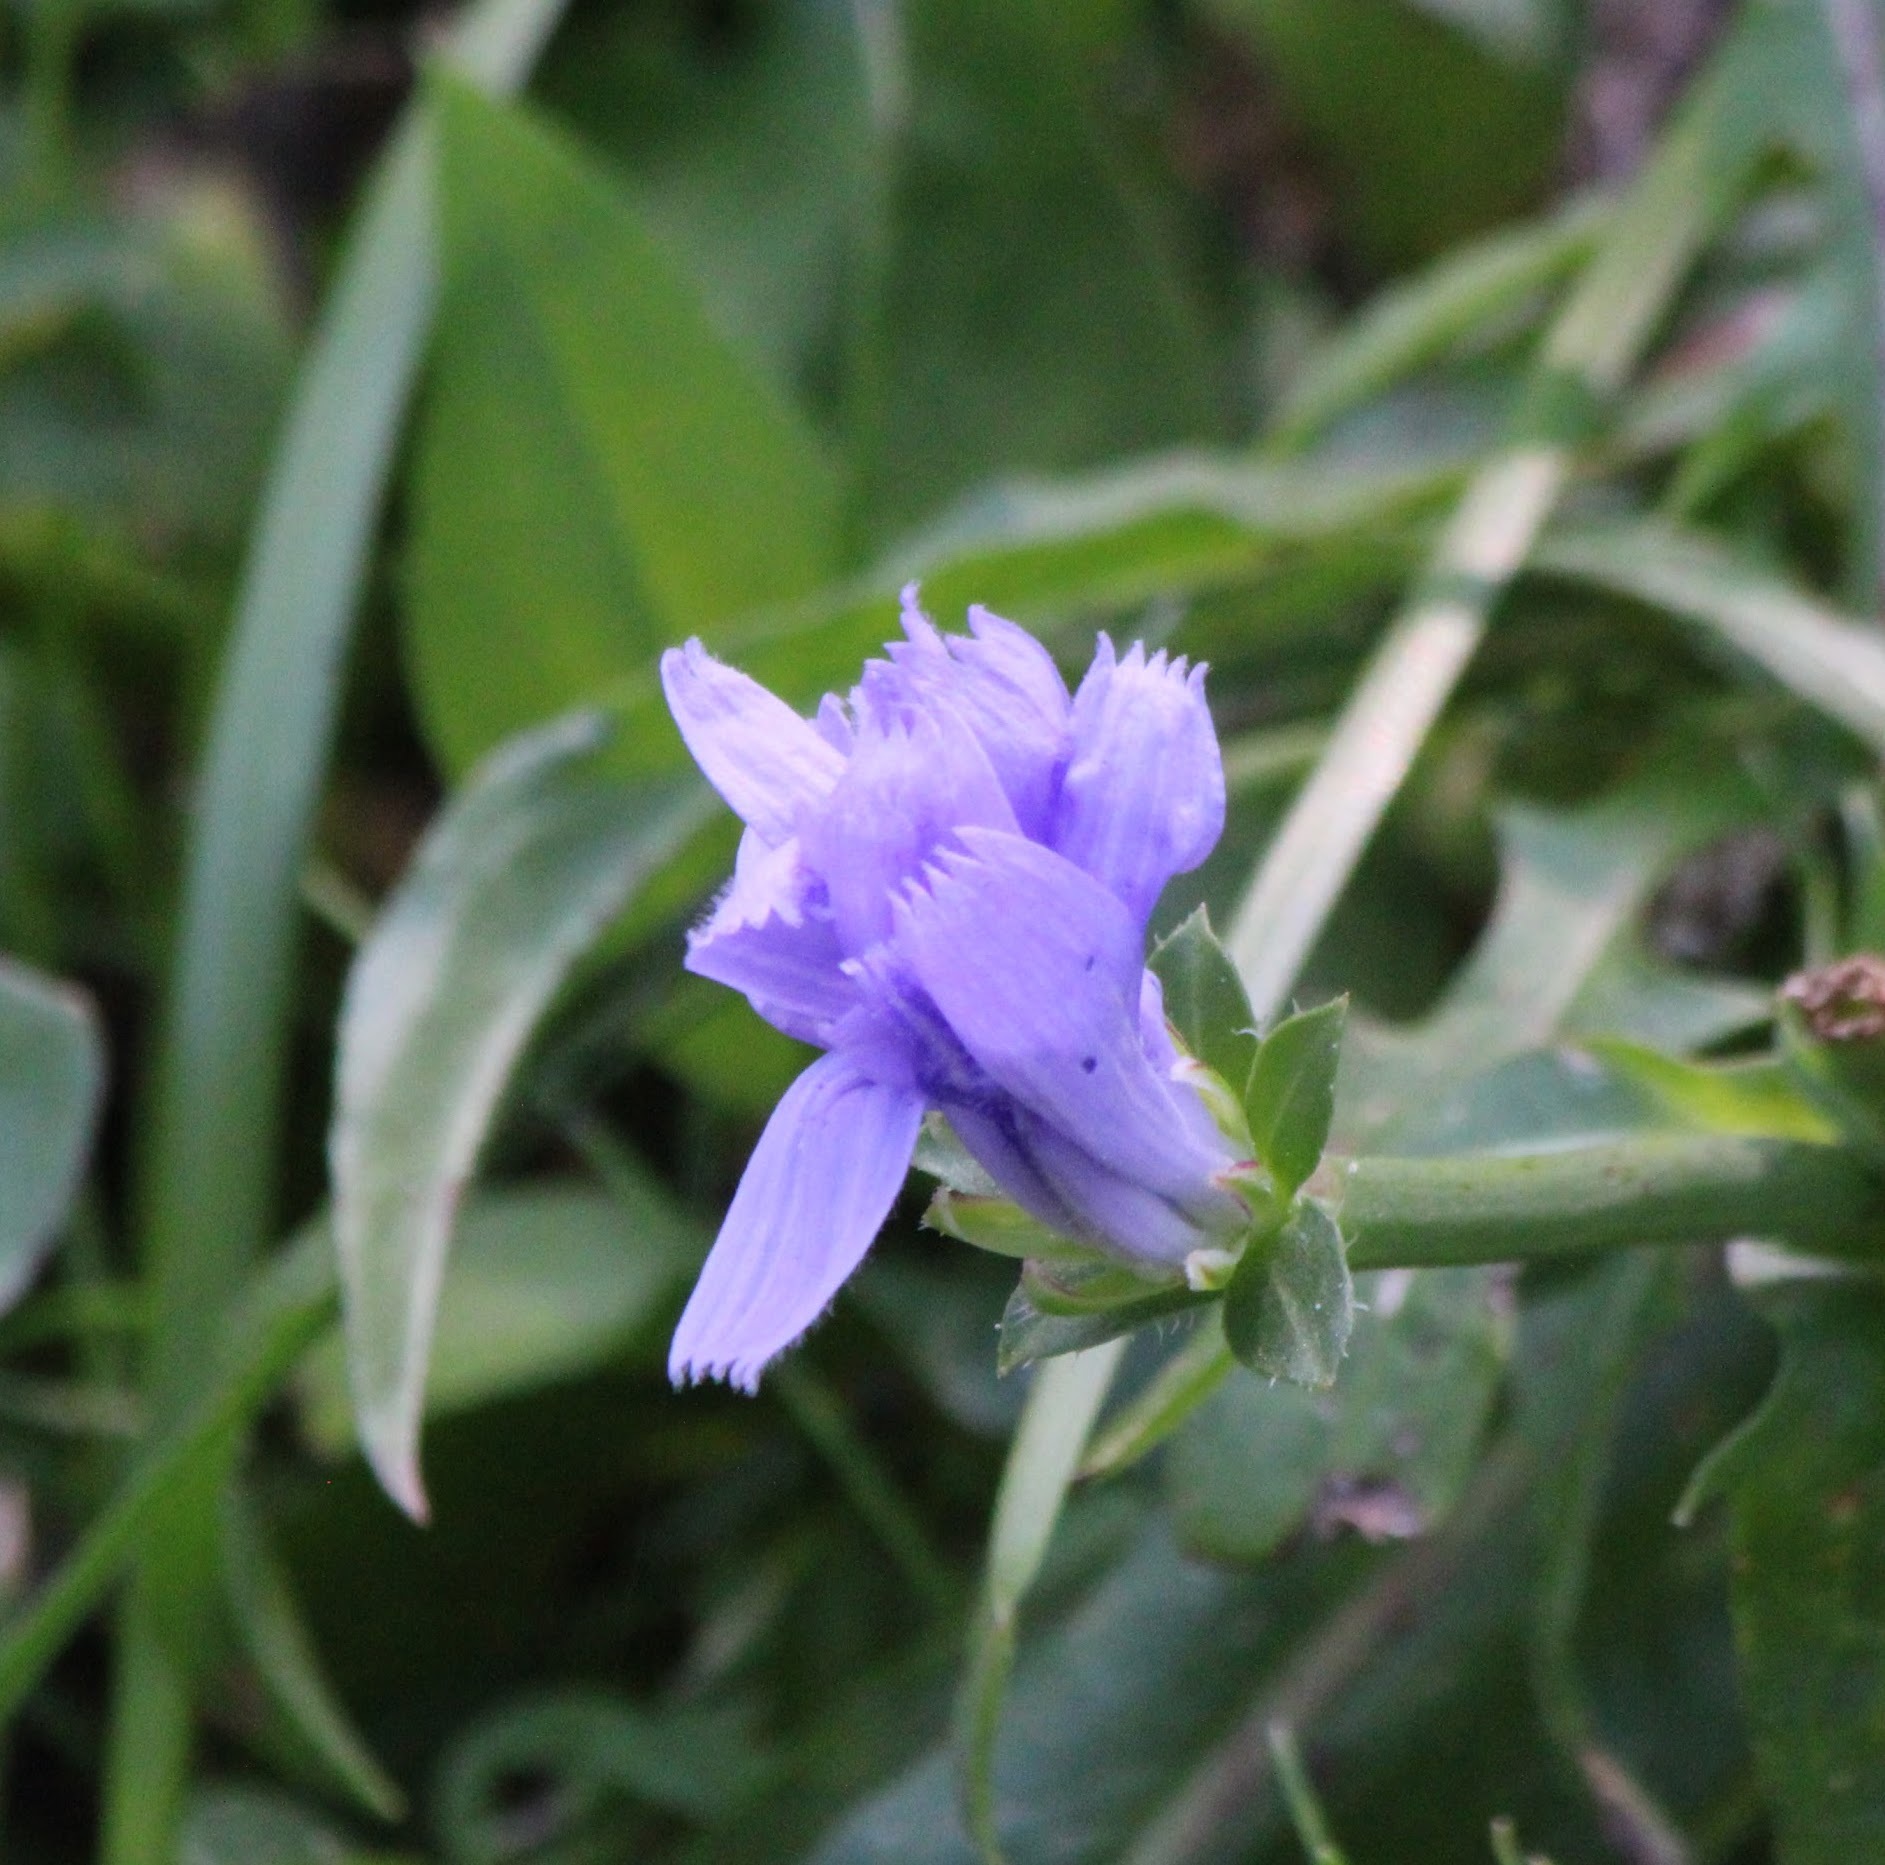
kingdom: Plantae
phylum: Tracheophyta
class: Magnoliopsida
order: Asterales
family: Asteraceae
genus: Cichorium
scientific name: Cichorium intybus
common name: Chicory
